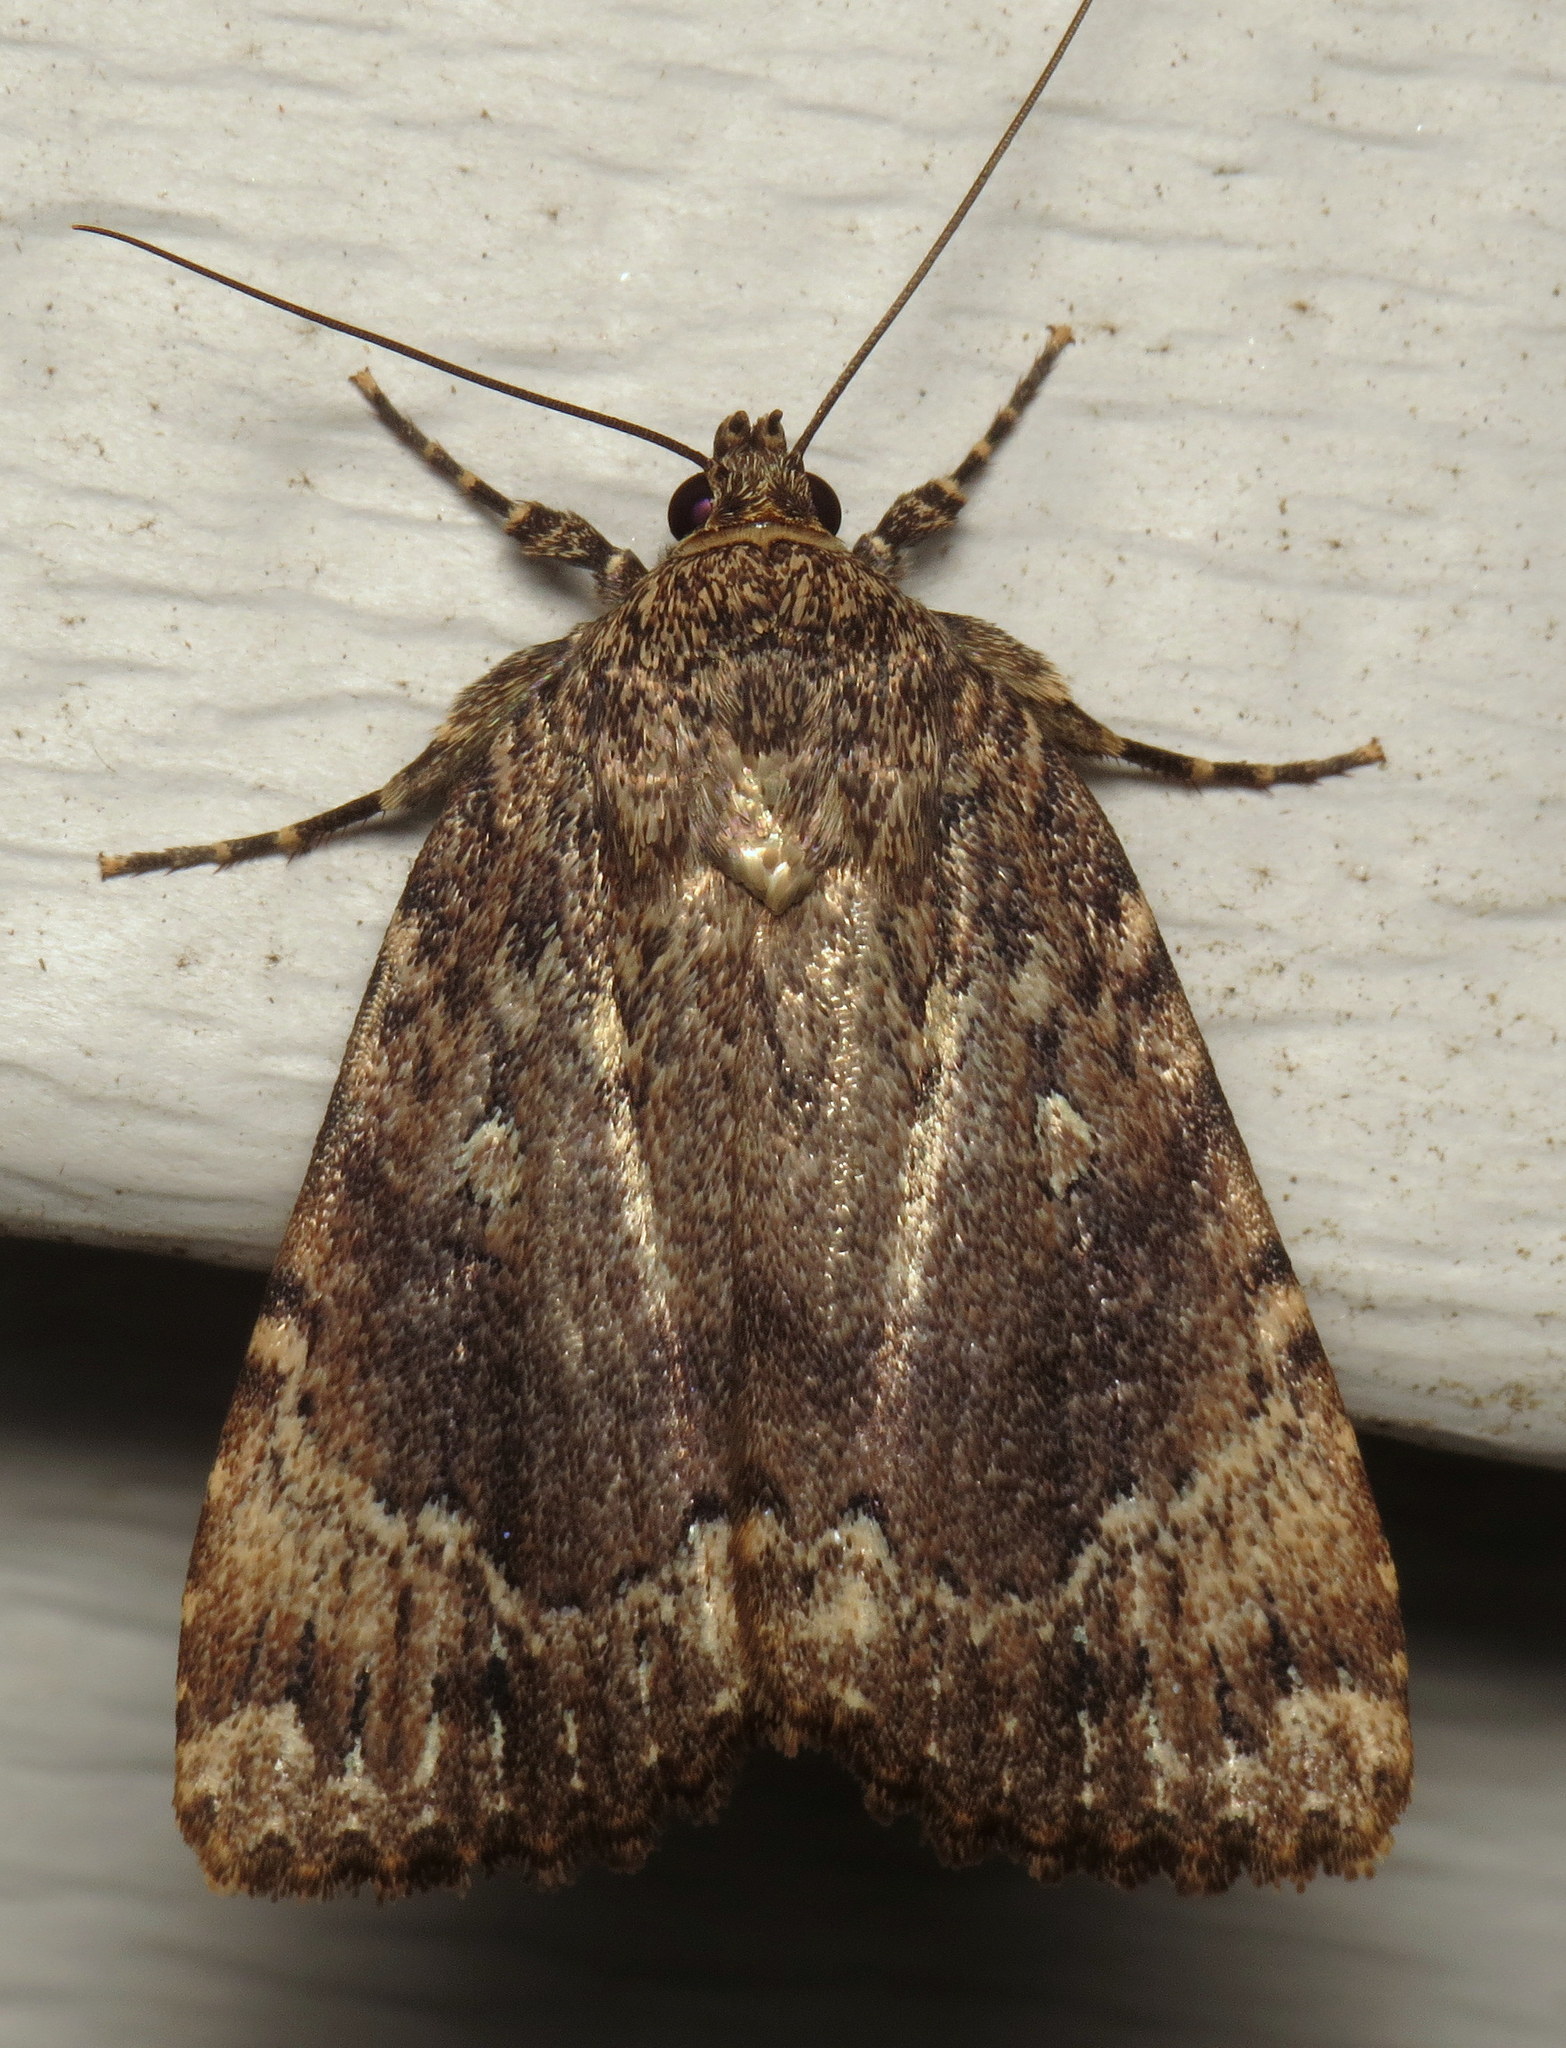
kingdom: Animalia
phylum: Arthropoda
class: Insecta
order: Lepidoptera
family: Noctuidae
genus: Amphipyra
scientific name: Amphipyra pyramidoides
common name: American copper underwing
